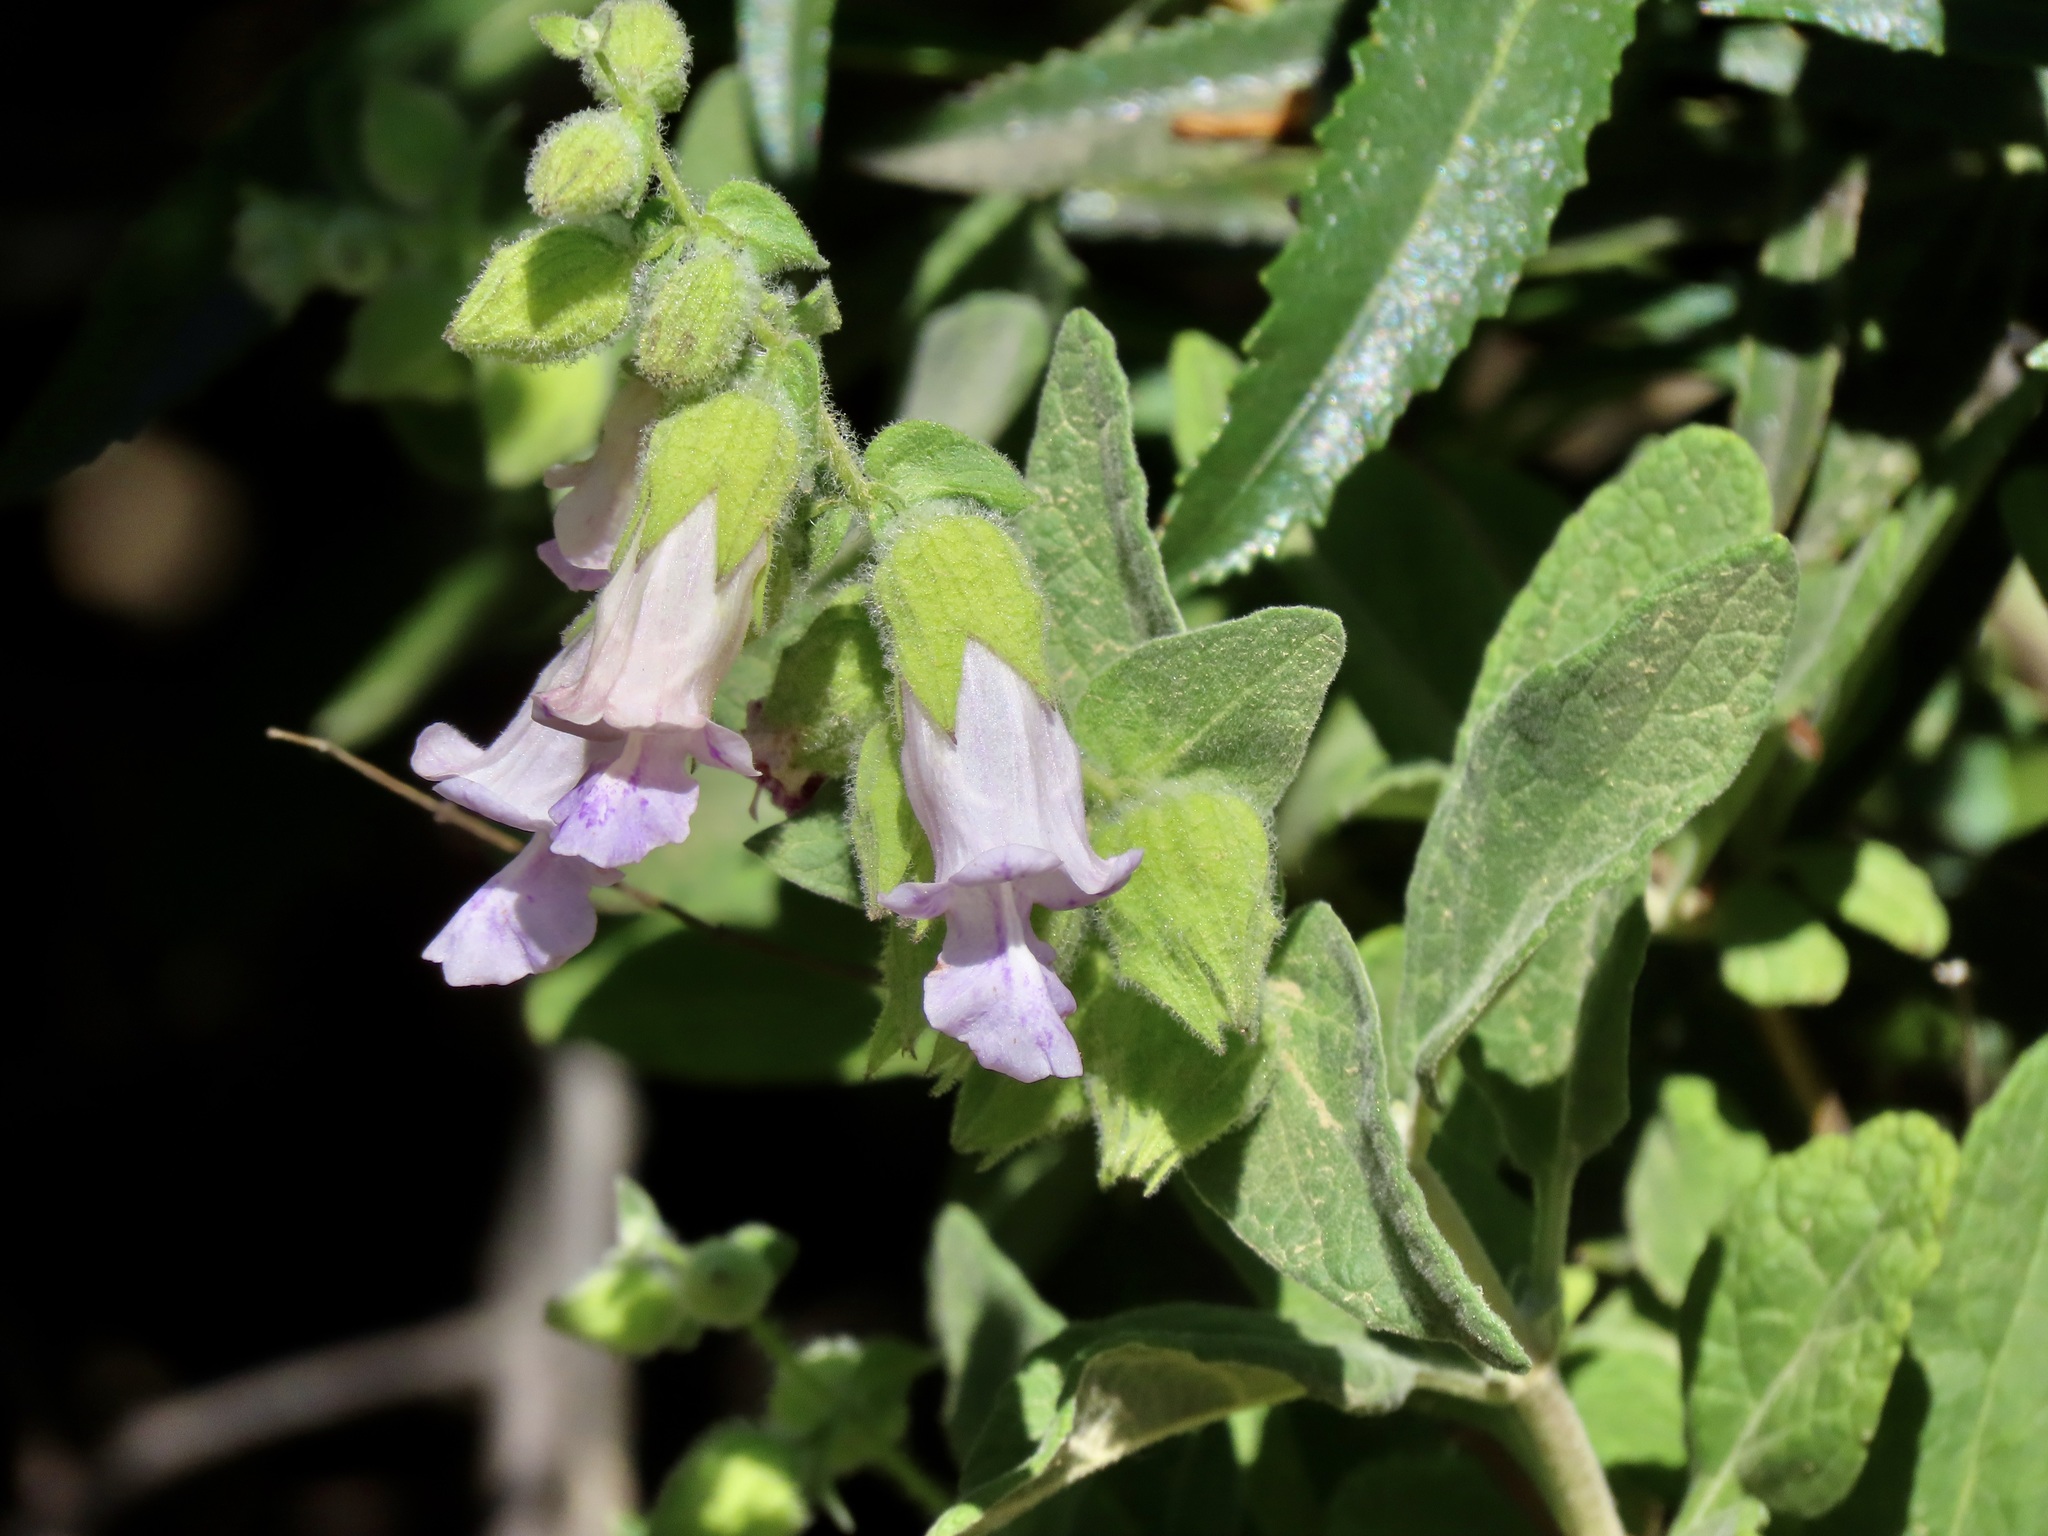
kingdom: Plantae
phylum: Tracheophyta
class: Magnoliopsida
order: Lamiales
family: Lamiaceae
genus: Lepechinia
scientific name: Lepechinia calycina
